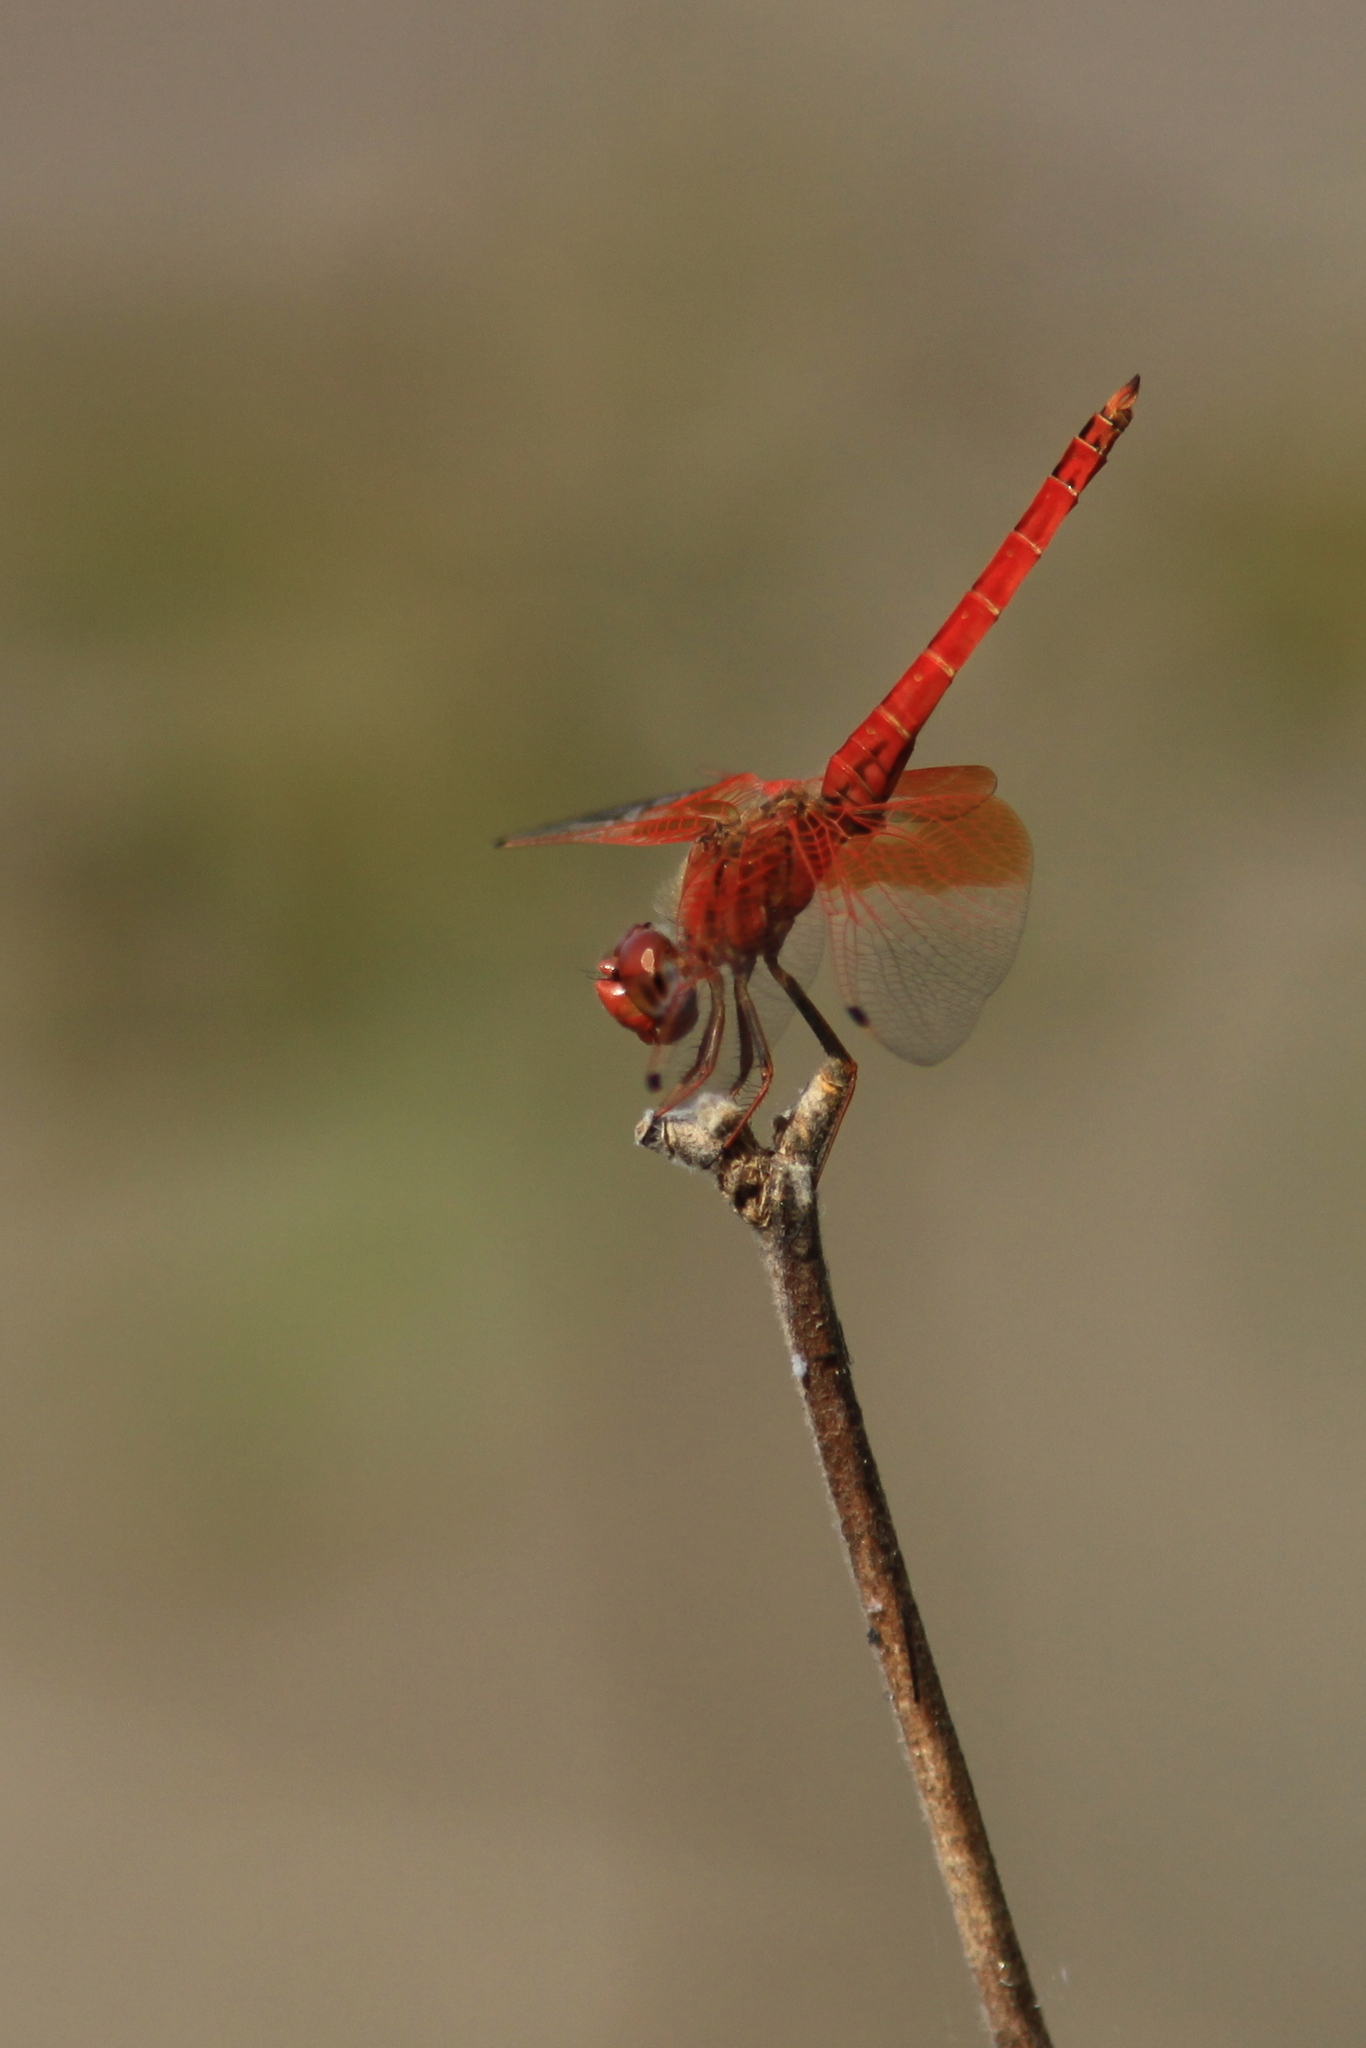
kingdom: Animalia
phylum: Arthropoda
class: Insecta
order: Odonata
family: Libellulidae
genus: Trithemis
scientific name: Trithemis kirbyi
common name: Kirby's dropwing
